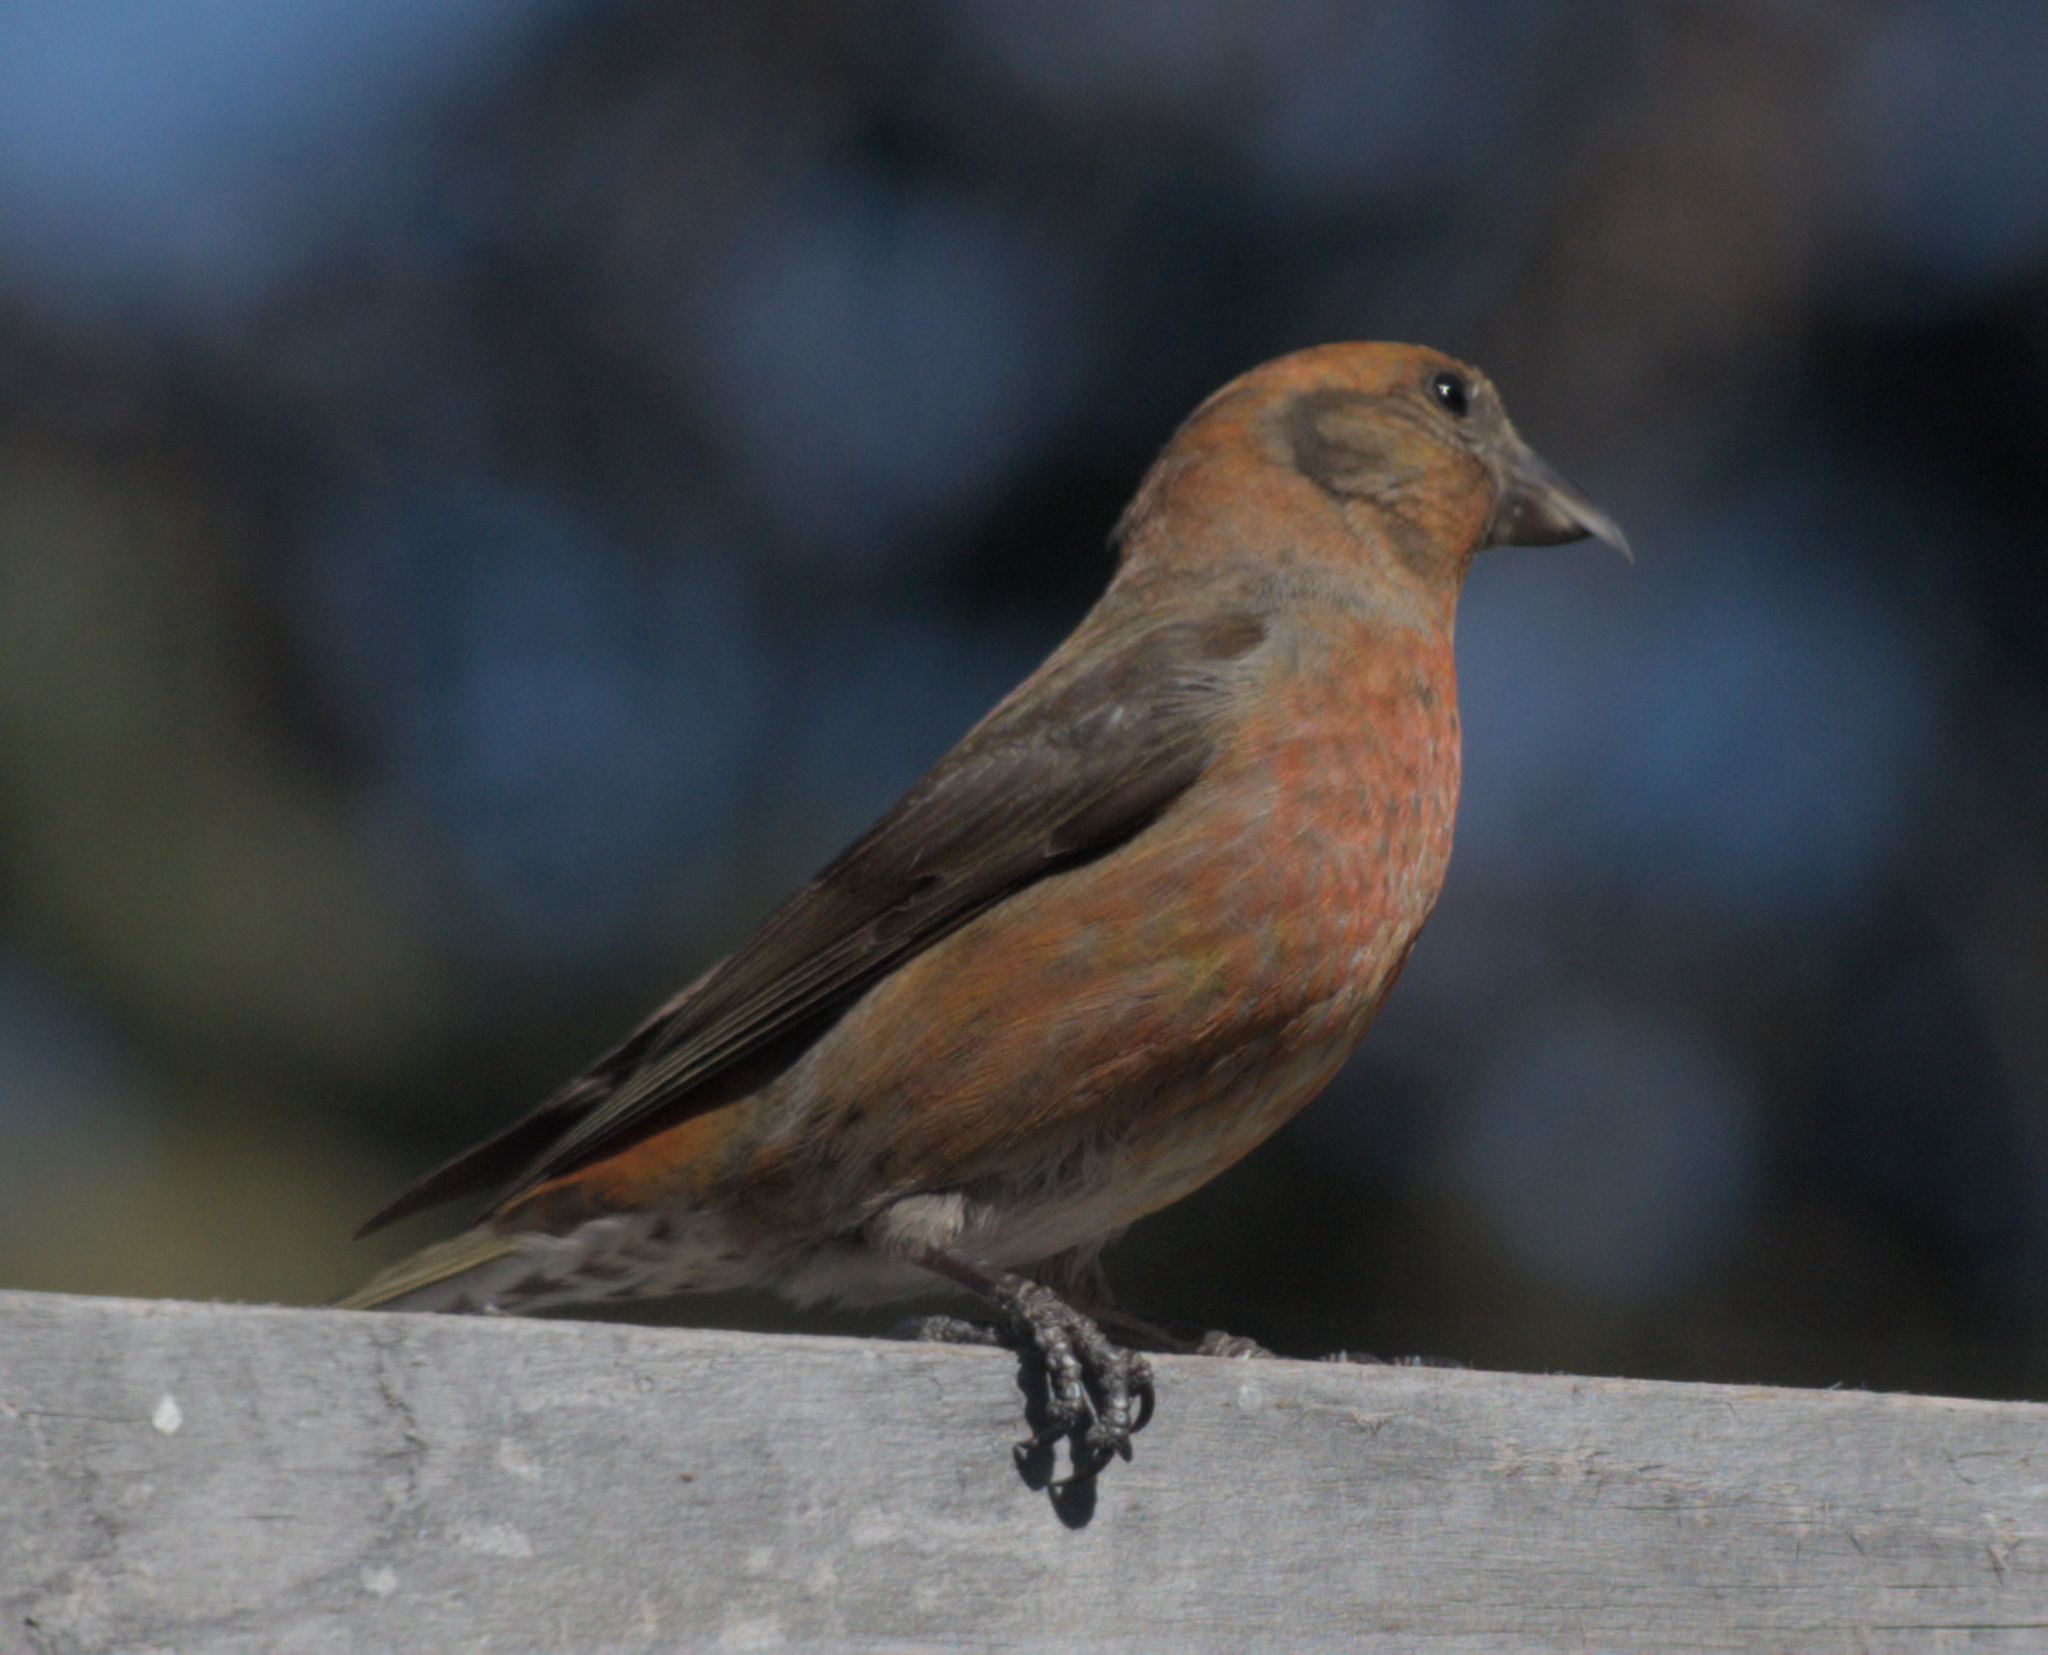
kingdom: Animalia
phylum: Chordata
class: Aves
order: Passeriformes
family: Fringillidae
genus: Loxia
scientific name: Loxia curvirostra
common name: Red crossbill
